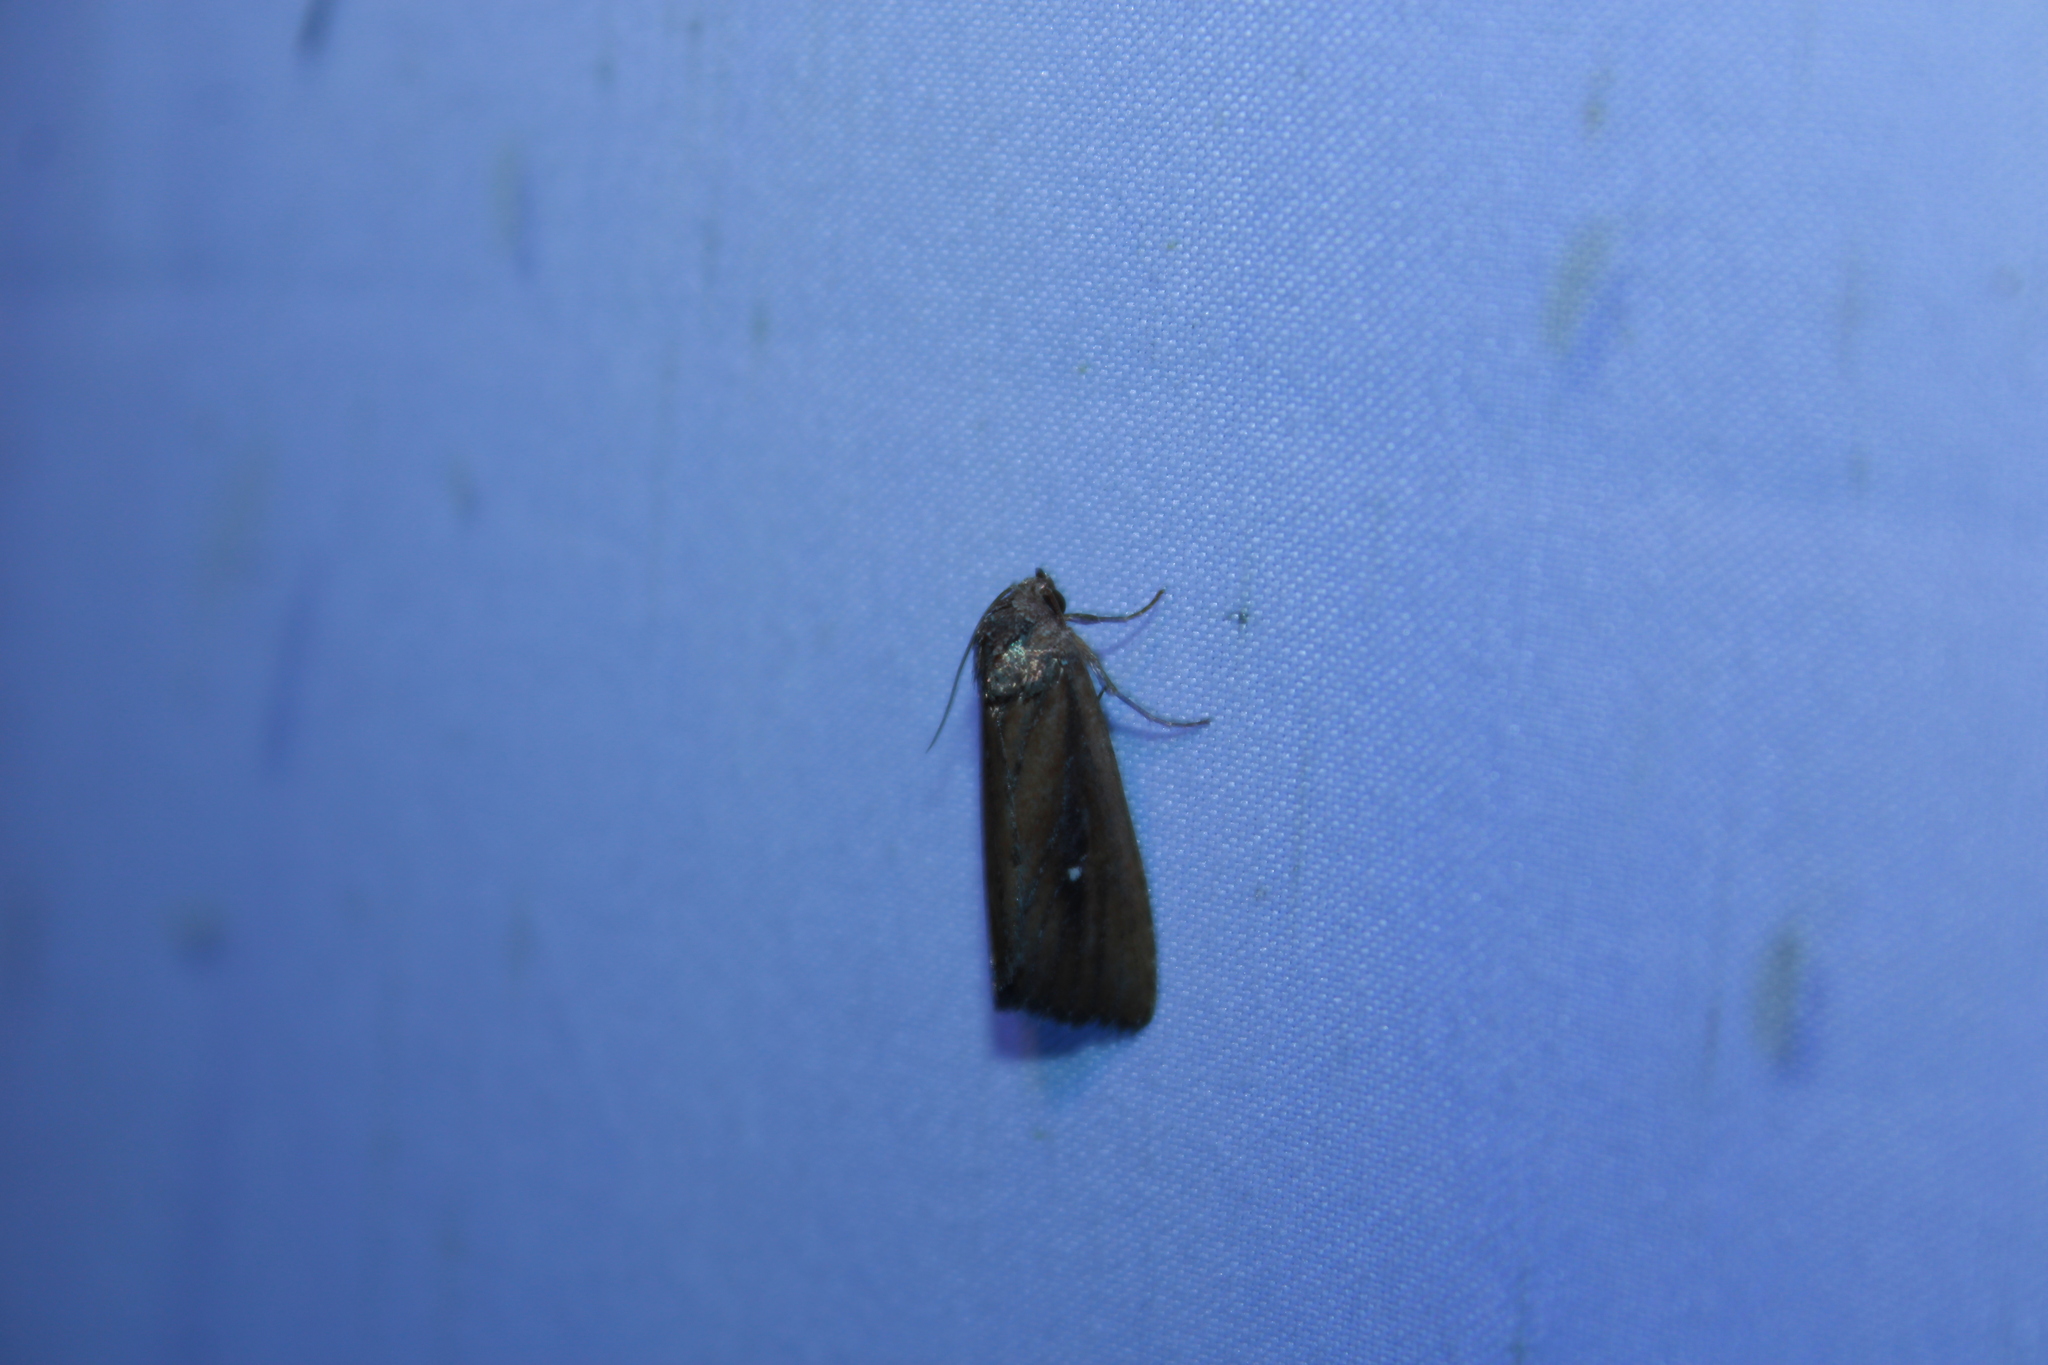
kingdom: Animalia
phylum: Arthropoda
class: Insecta
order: Lepidoptera
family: Noctuidae
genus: Condica
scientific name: Condica videns
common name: White-dotted groundling
